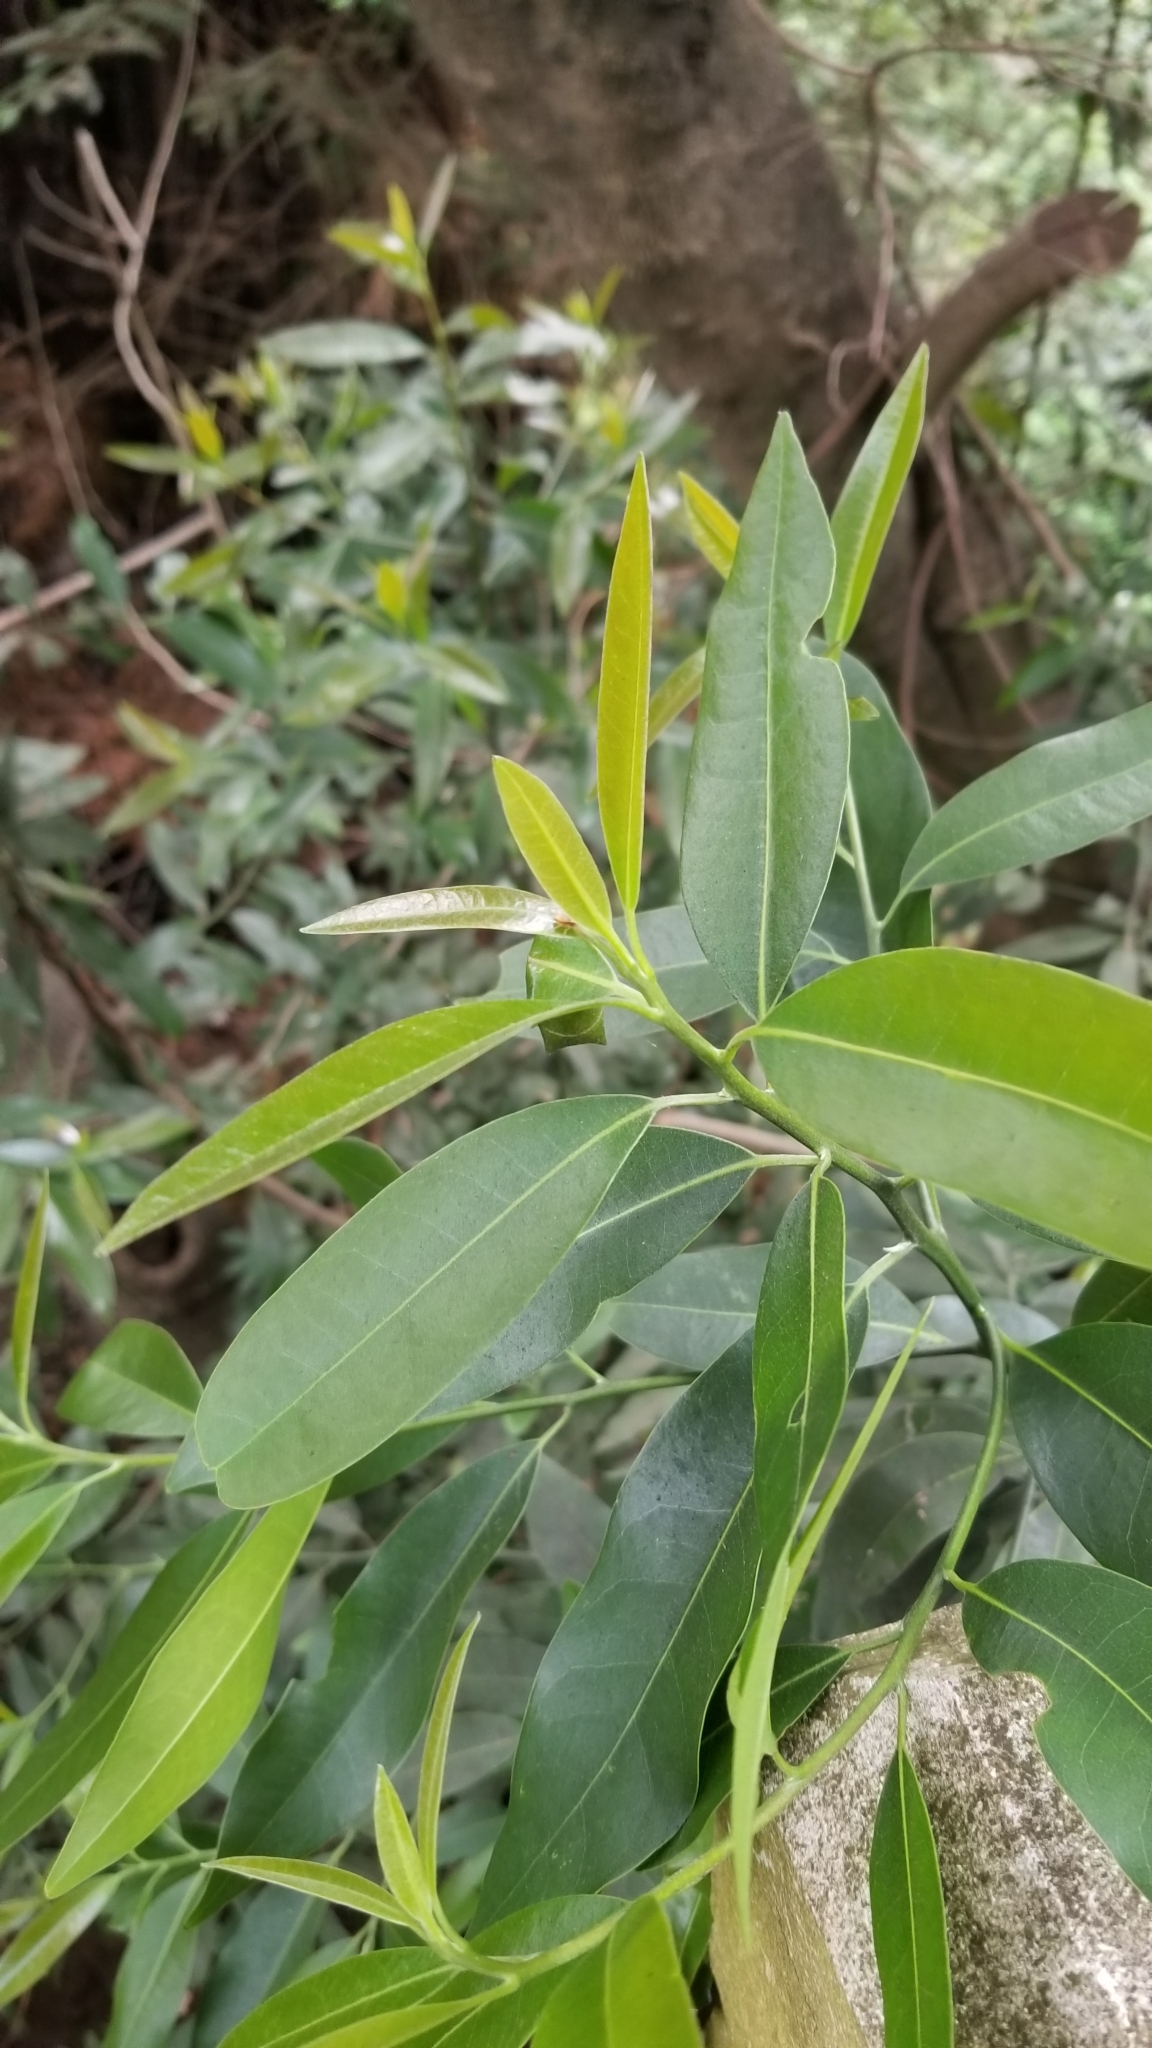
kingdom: Plantae
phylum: Tracheophyta
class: Magnoliopsida
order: Laurales
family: Lauraceae
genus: Umbellularia
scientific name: Umbellularia californica
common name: California bay
